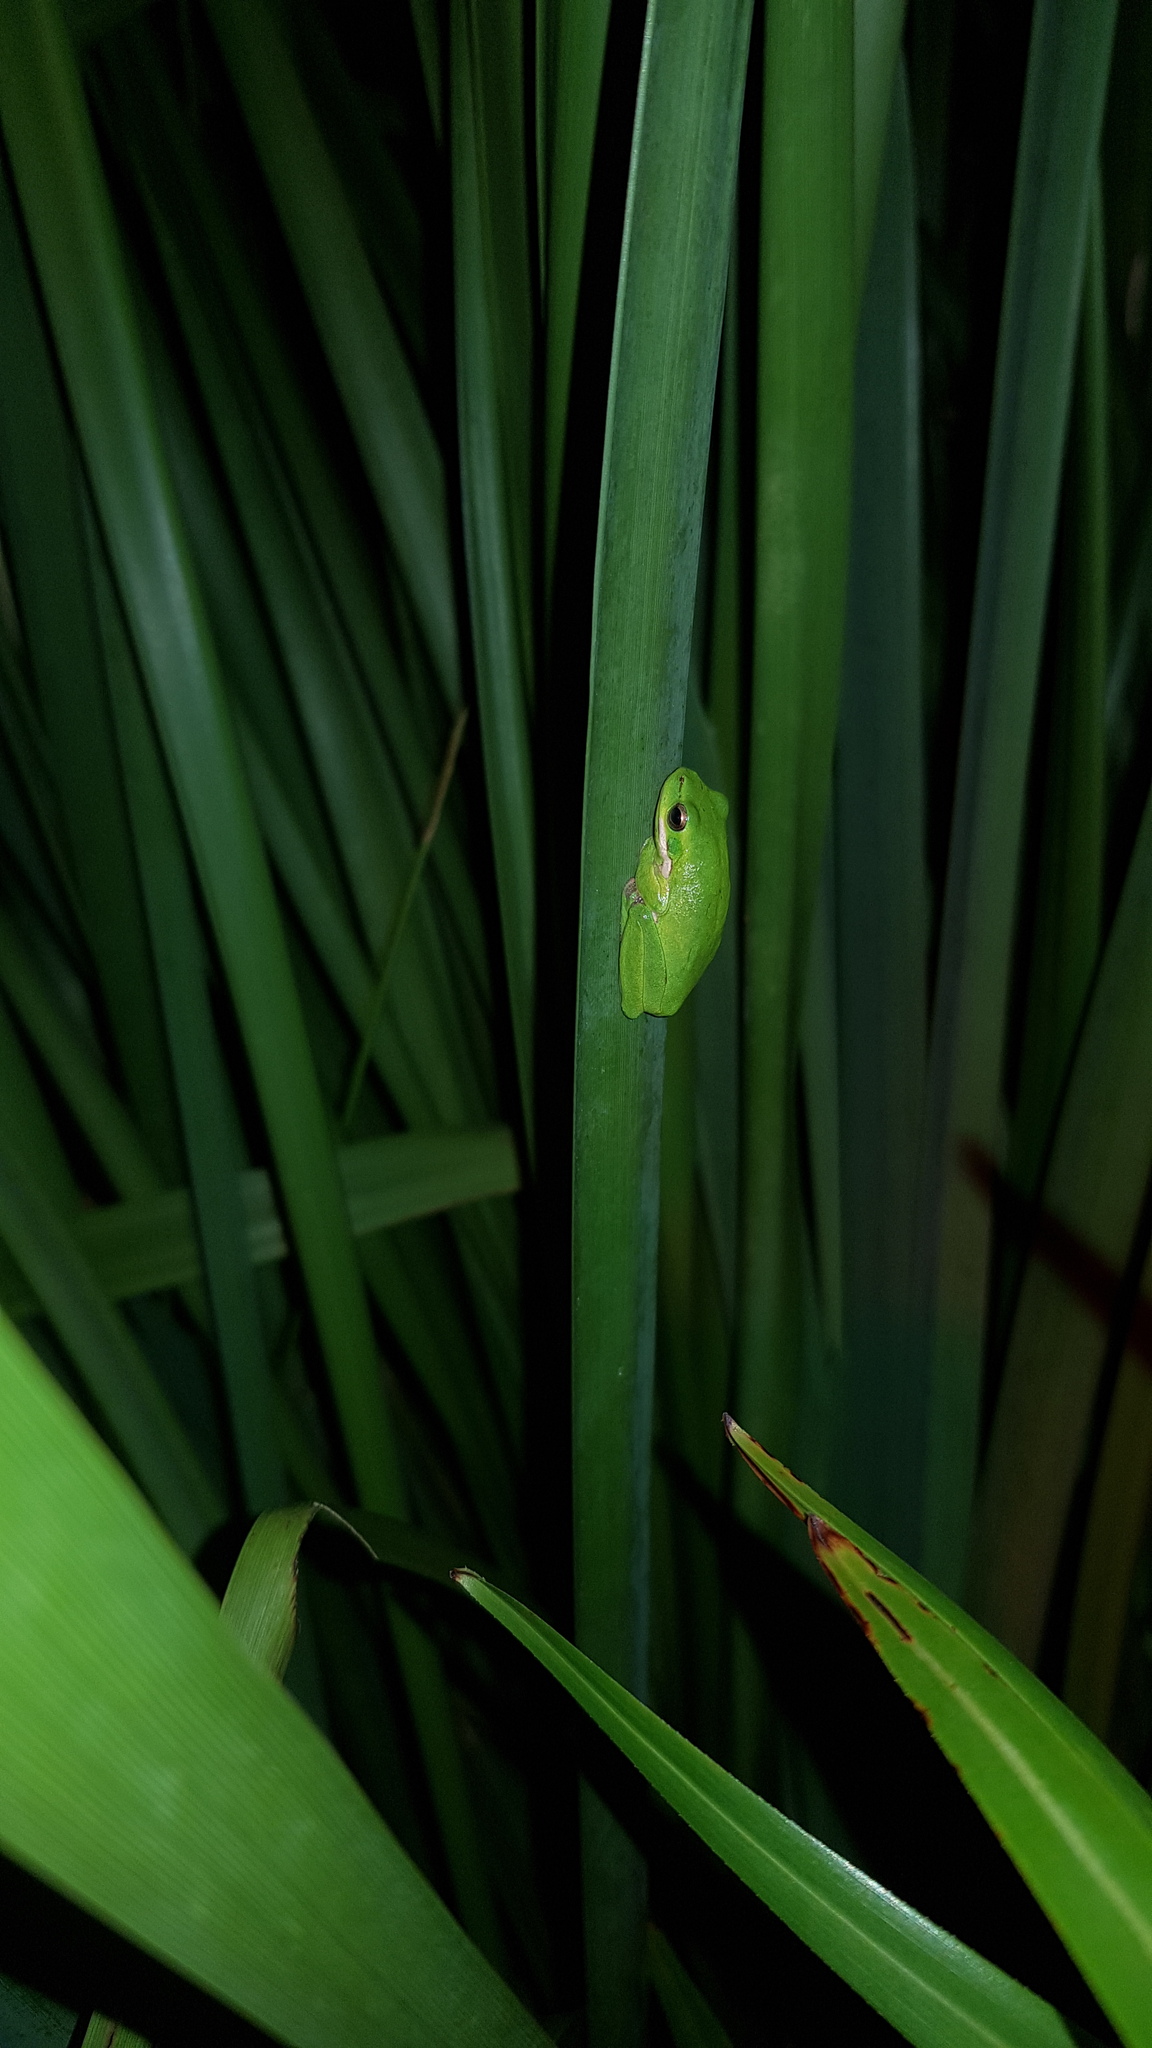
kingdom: Animalia
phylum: Chordata
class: Amphibia
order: Anura
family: Pelodryadidae
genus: Litoria
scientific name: Litoria fallax
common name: Eastern dwarf treefrog
